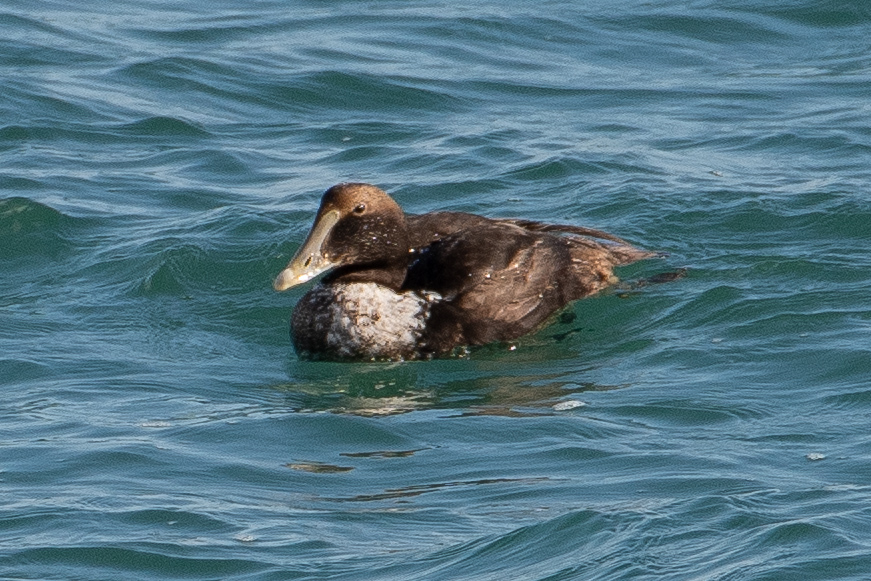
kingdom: Animalia
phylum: Chordata
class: Aves
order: Anseriformes
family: Anatidae
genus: Somateria
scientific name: Somateria mollissima
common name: Common eider
